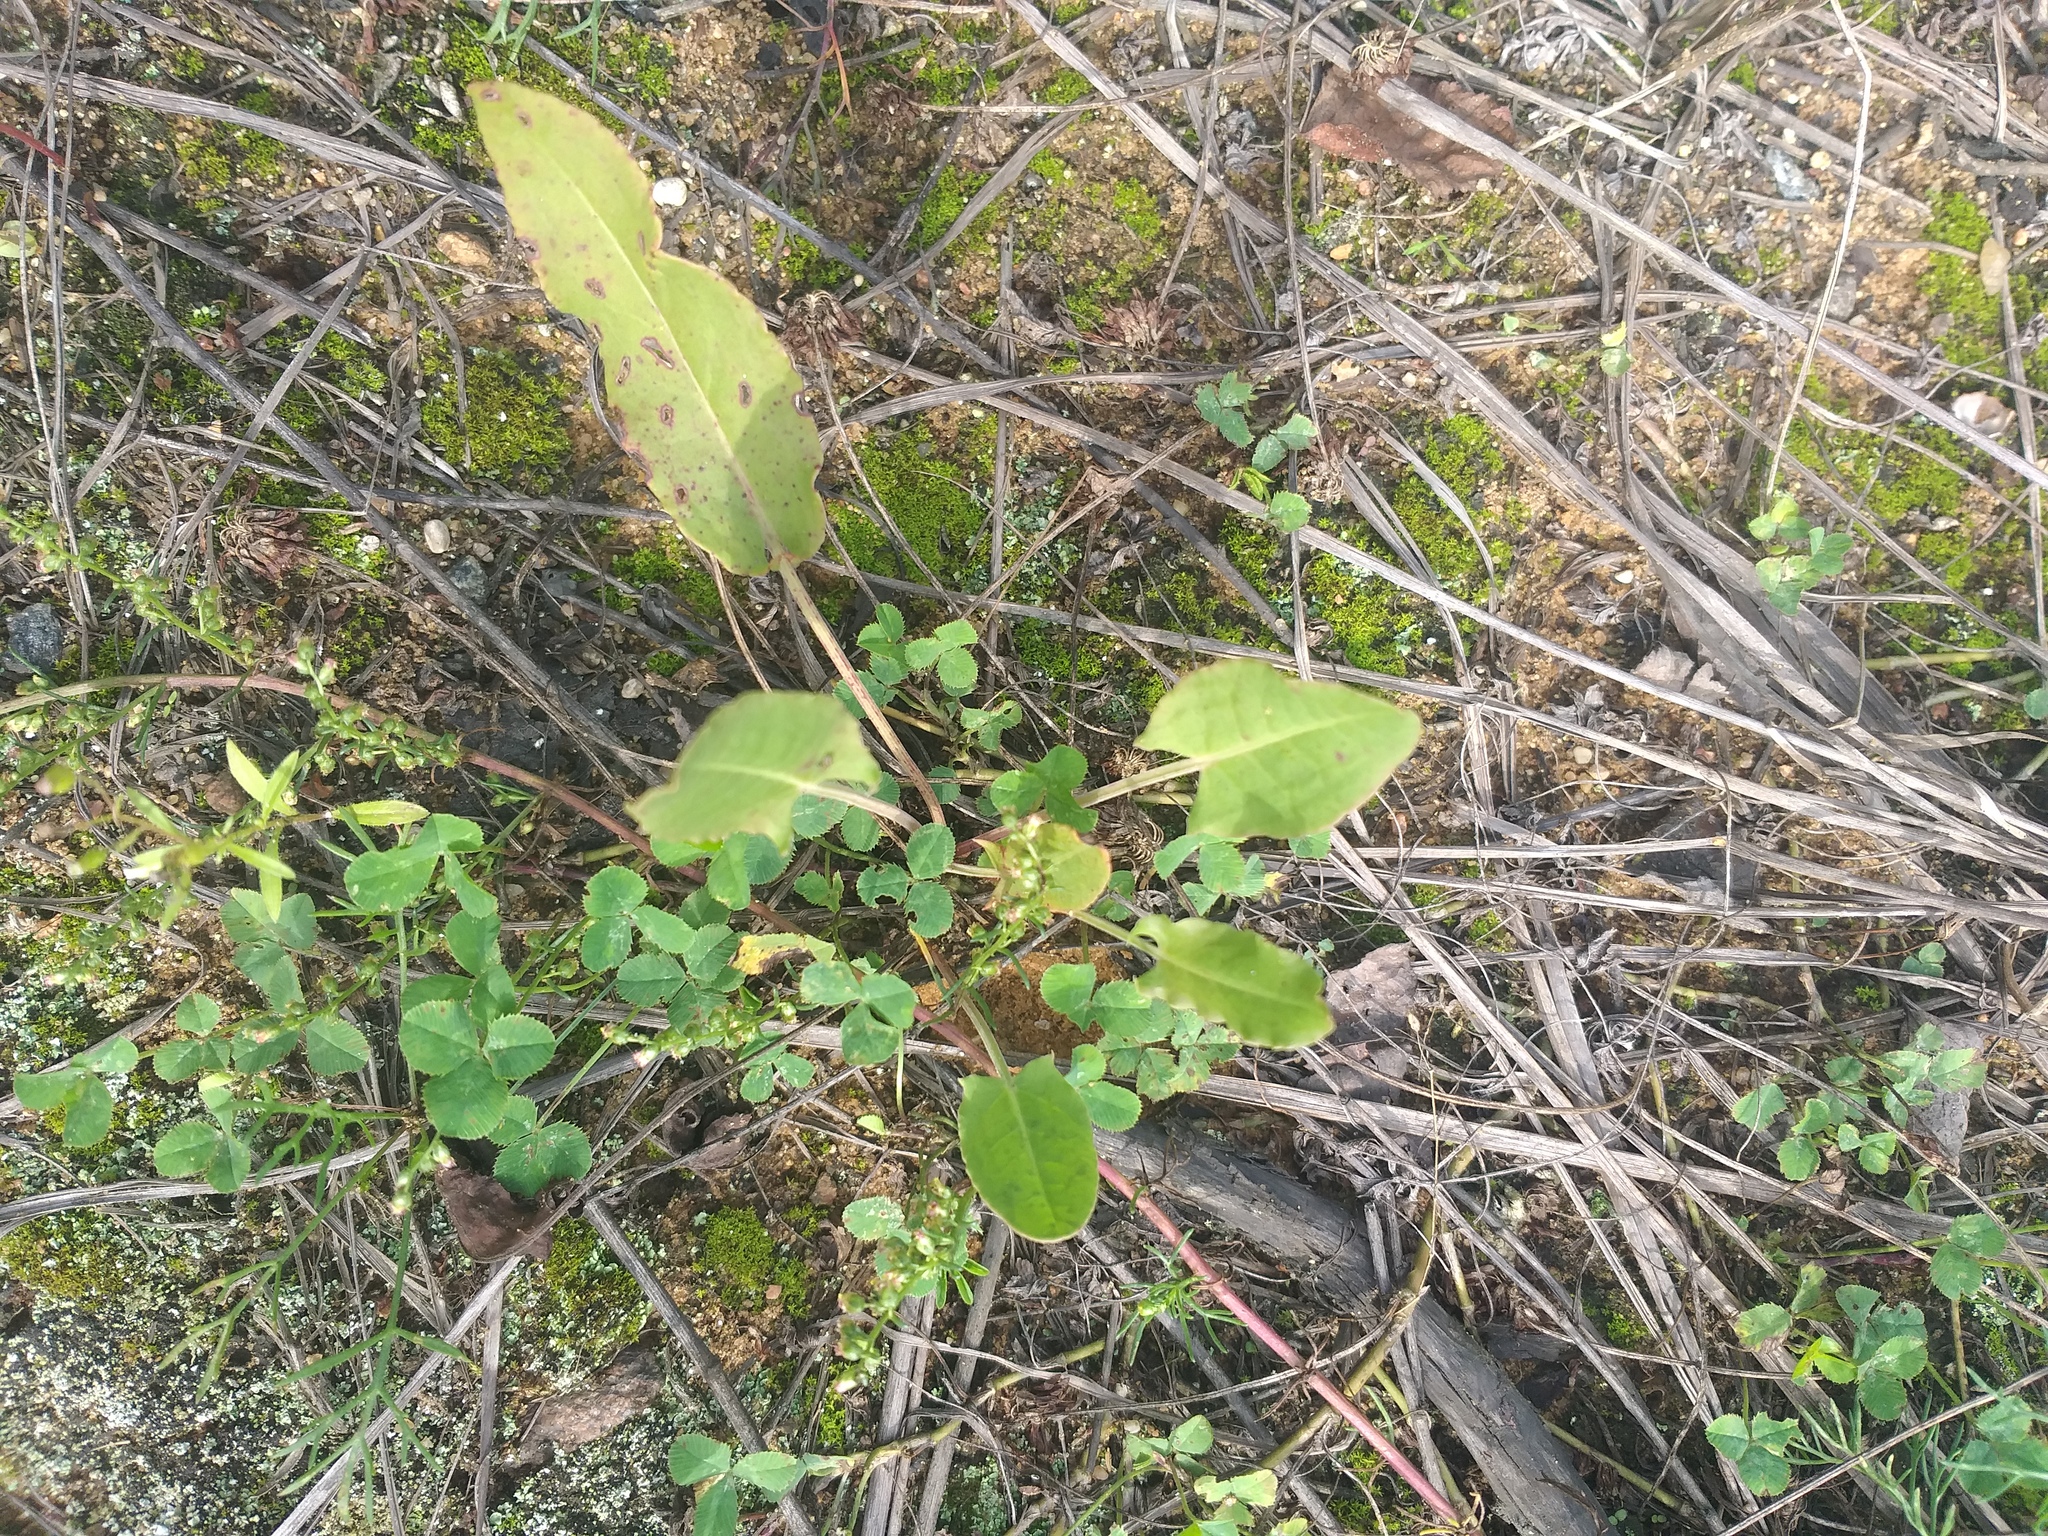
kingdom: Plantae
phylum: Tracheophyta
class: Magnoliopsida
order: Caryophyllales
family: Polygonaceae
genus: Rumex
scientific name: Rumex thyrsiflorus
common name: Garden sorrel
